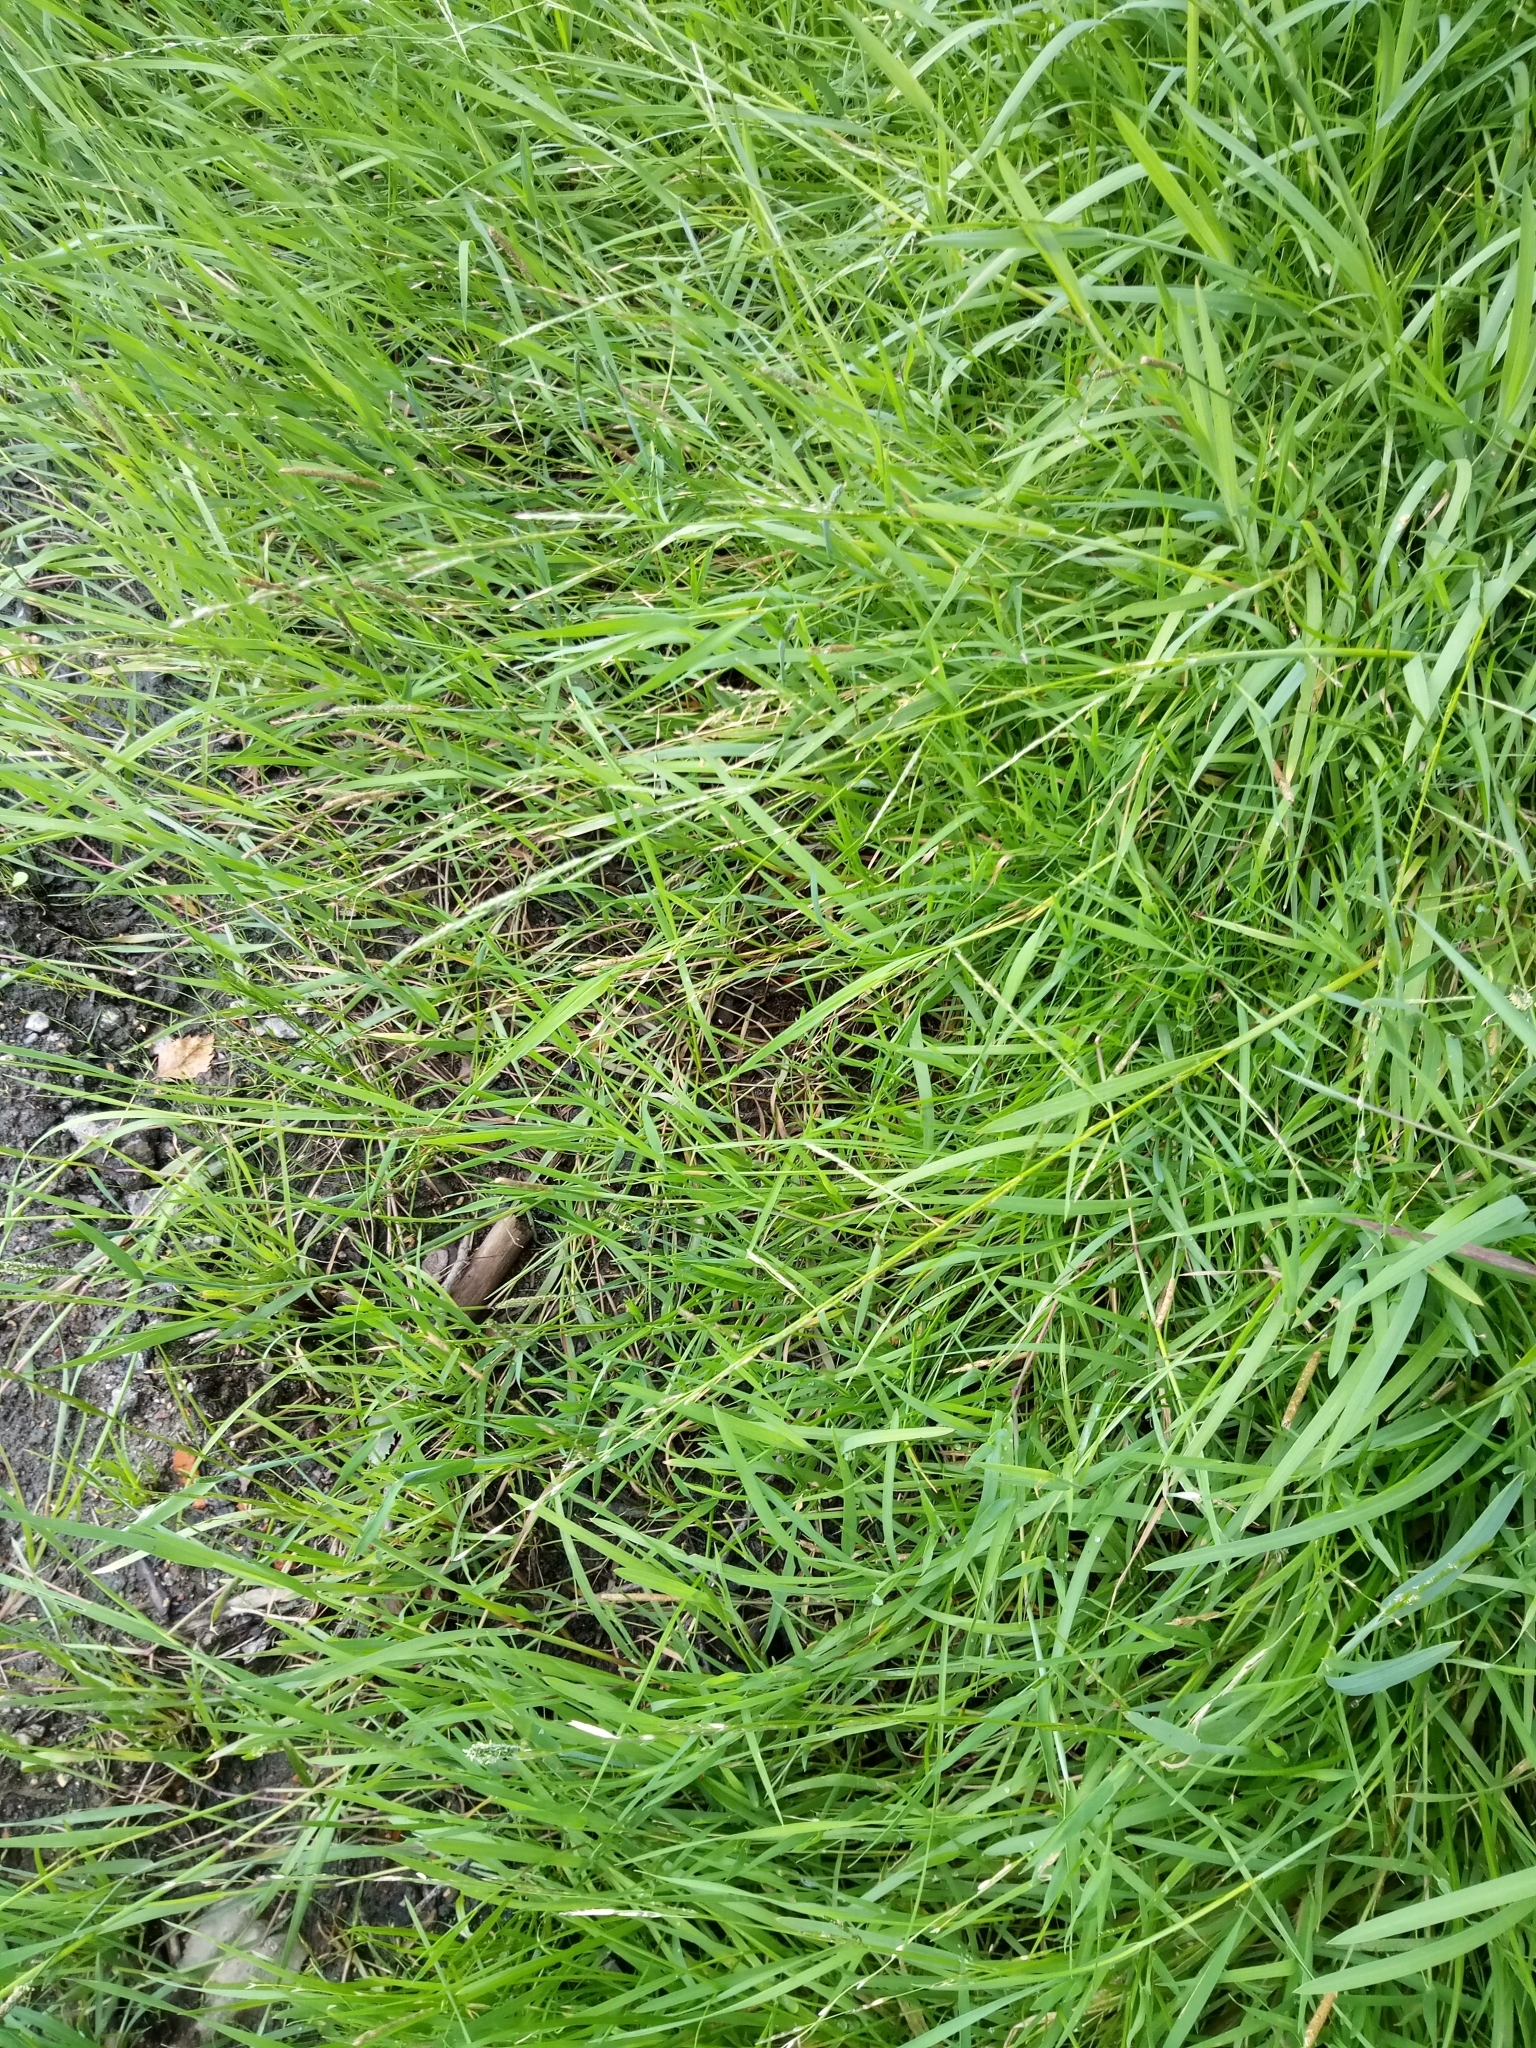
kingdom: Plantae
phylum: Tracheophyta
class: Liliopsida
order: Poales
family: Poaceae
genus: Glyceria
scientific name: Glyceria declinata
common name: Small sweet-grass
